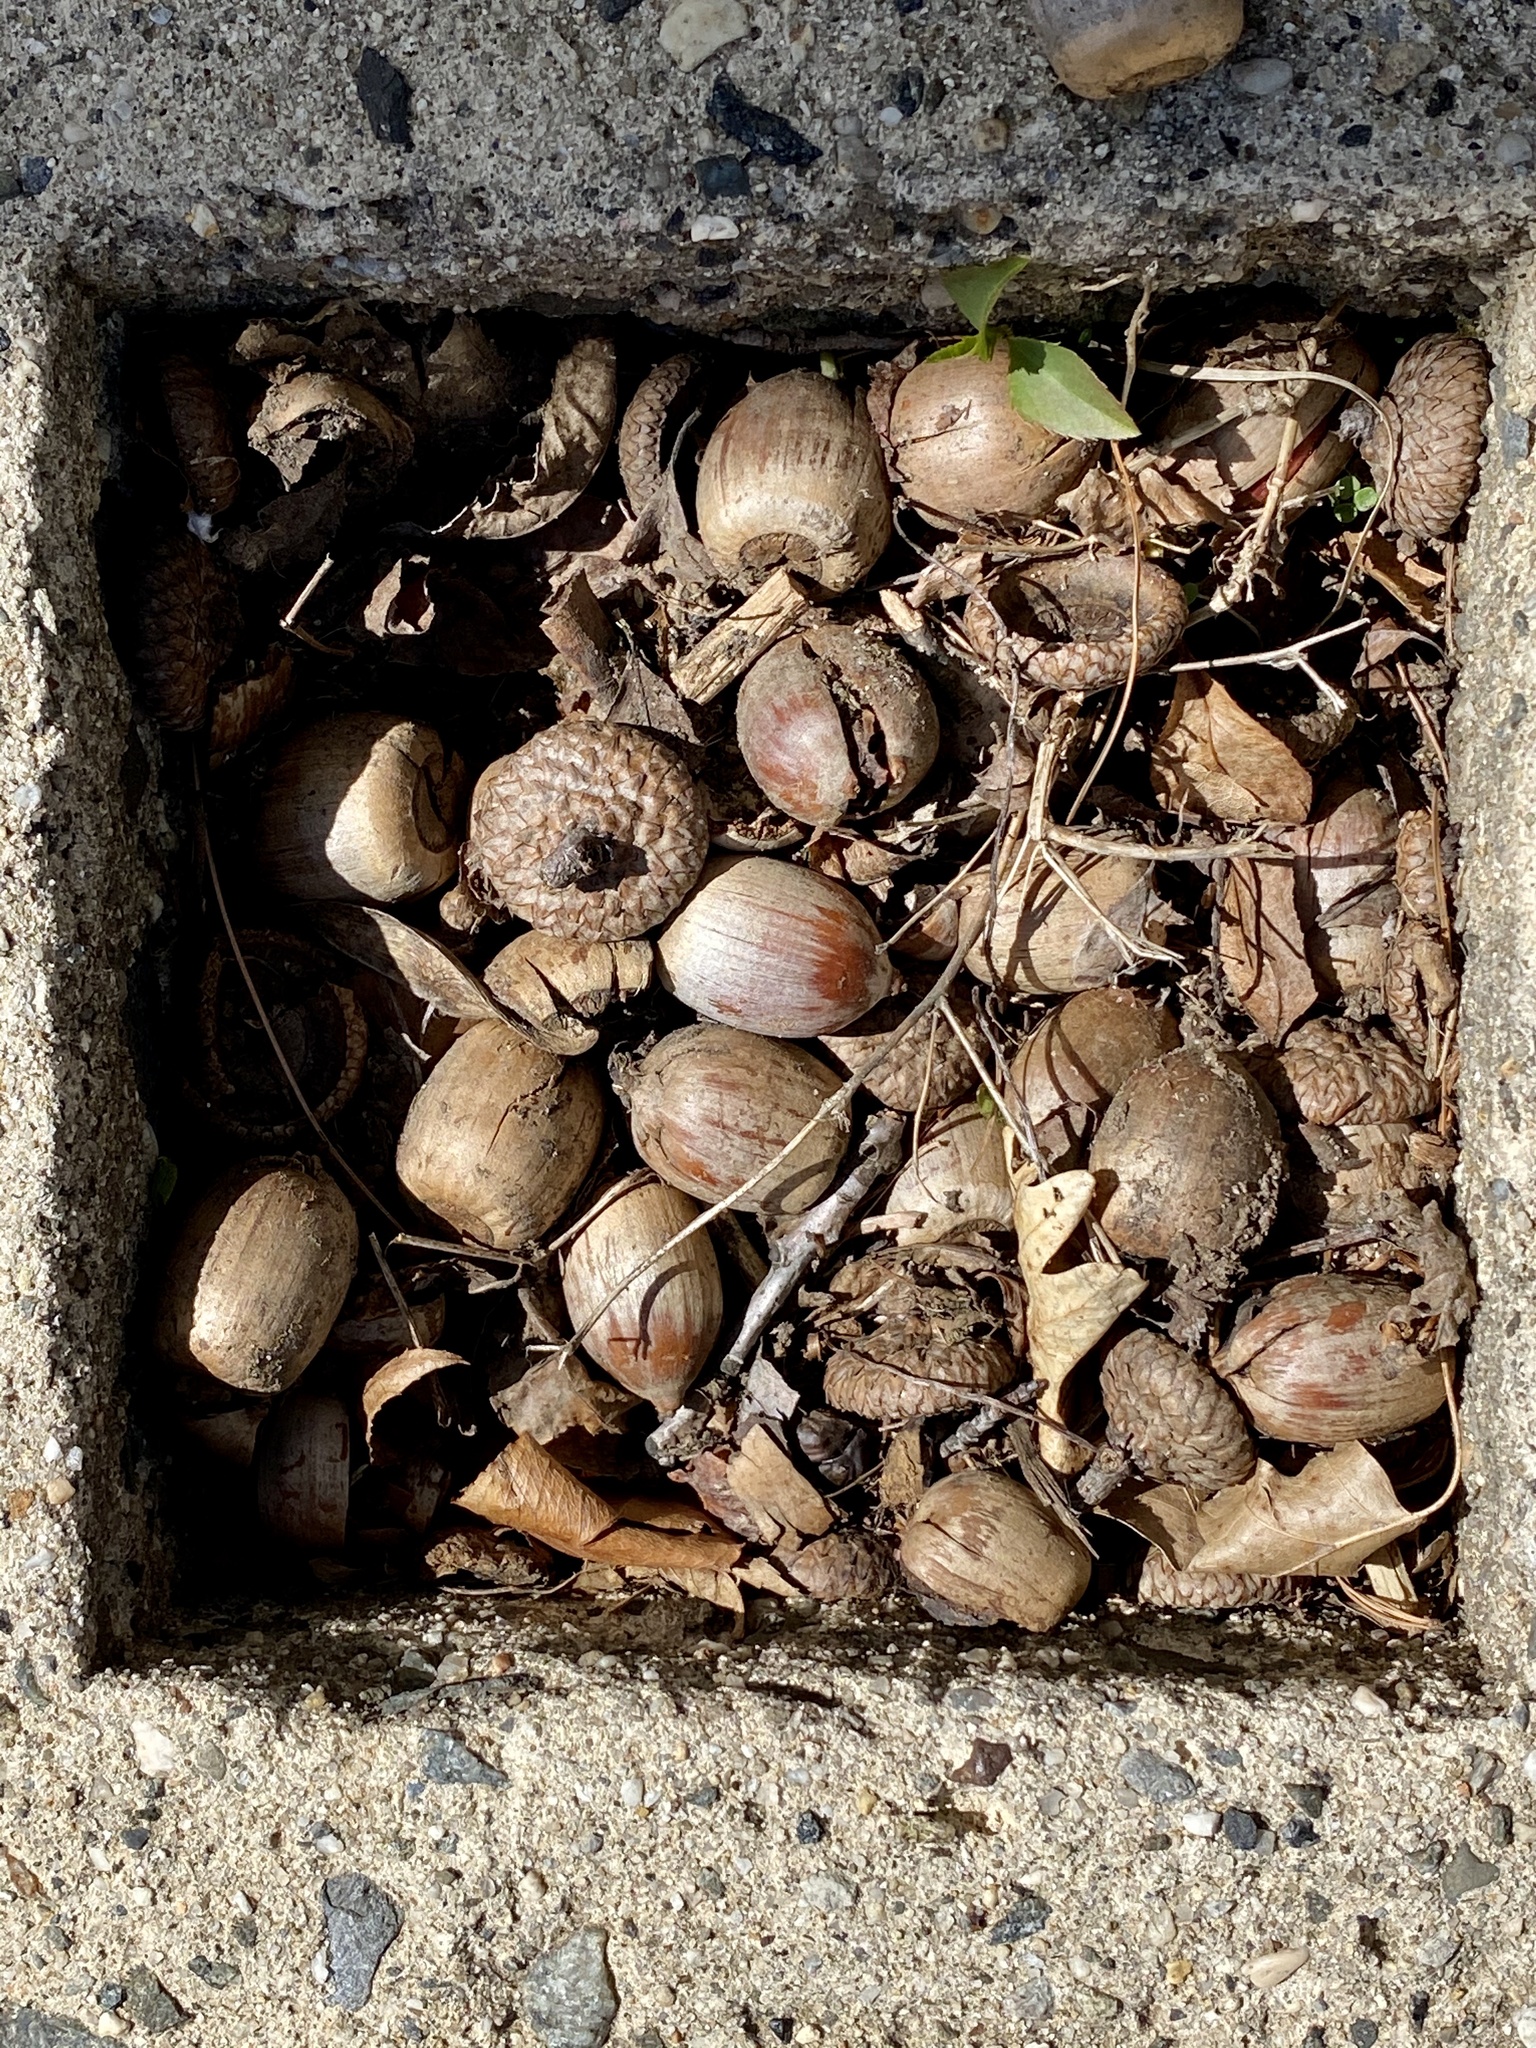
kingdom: Plantae
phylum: Tracheophyta
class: Magnoliopsida
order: Fagales
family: Fagaceae
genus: Quercus
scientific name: Quercus rubra
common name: Red oak
